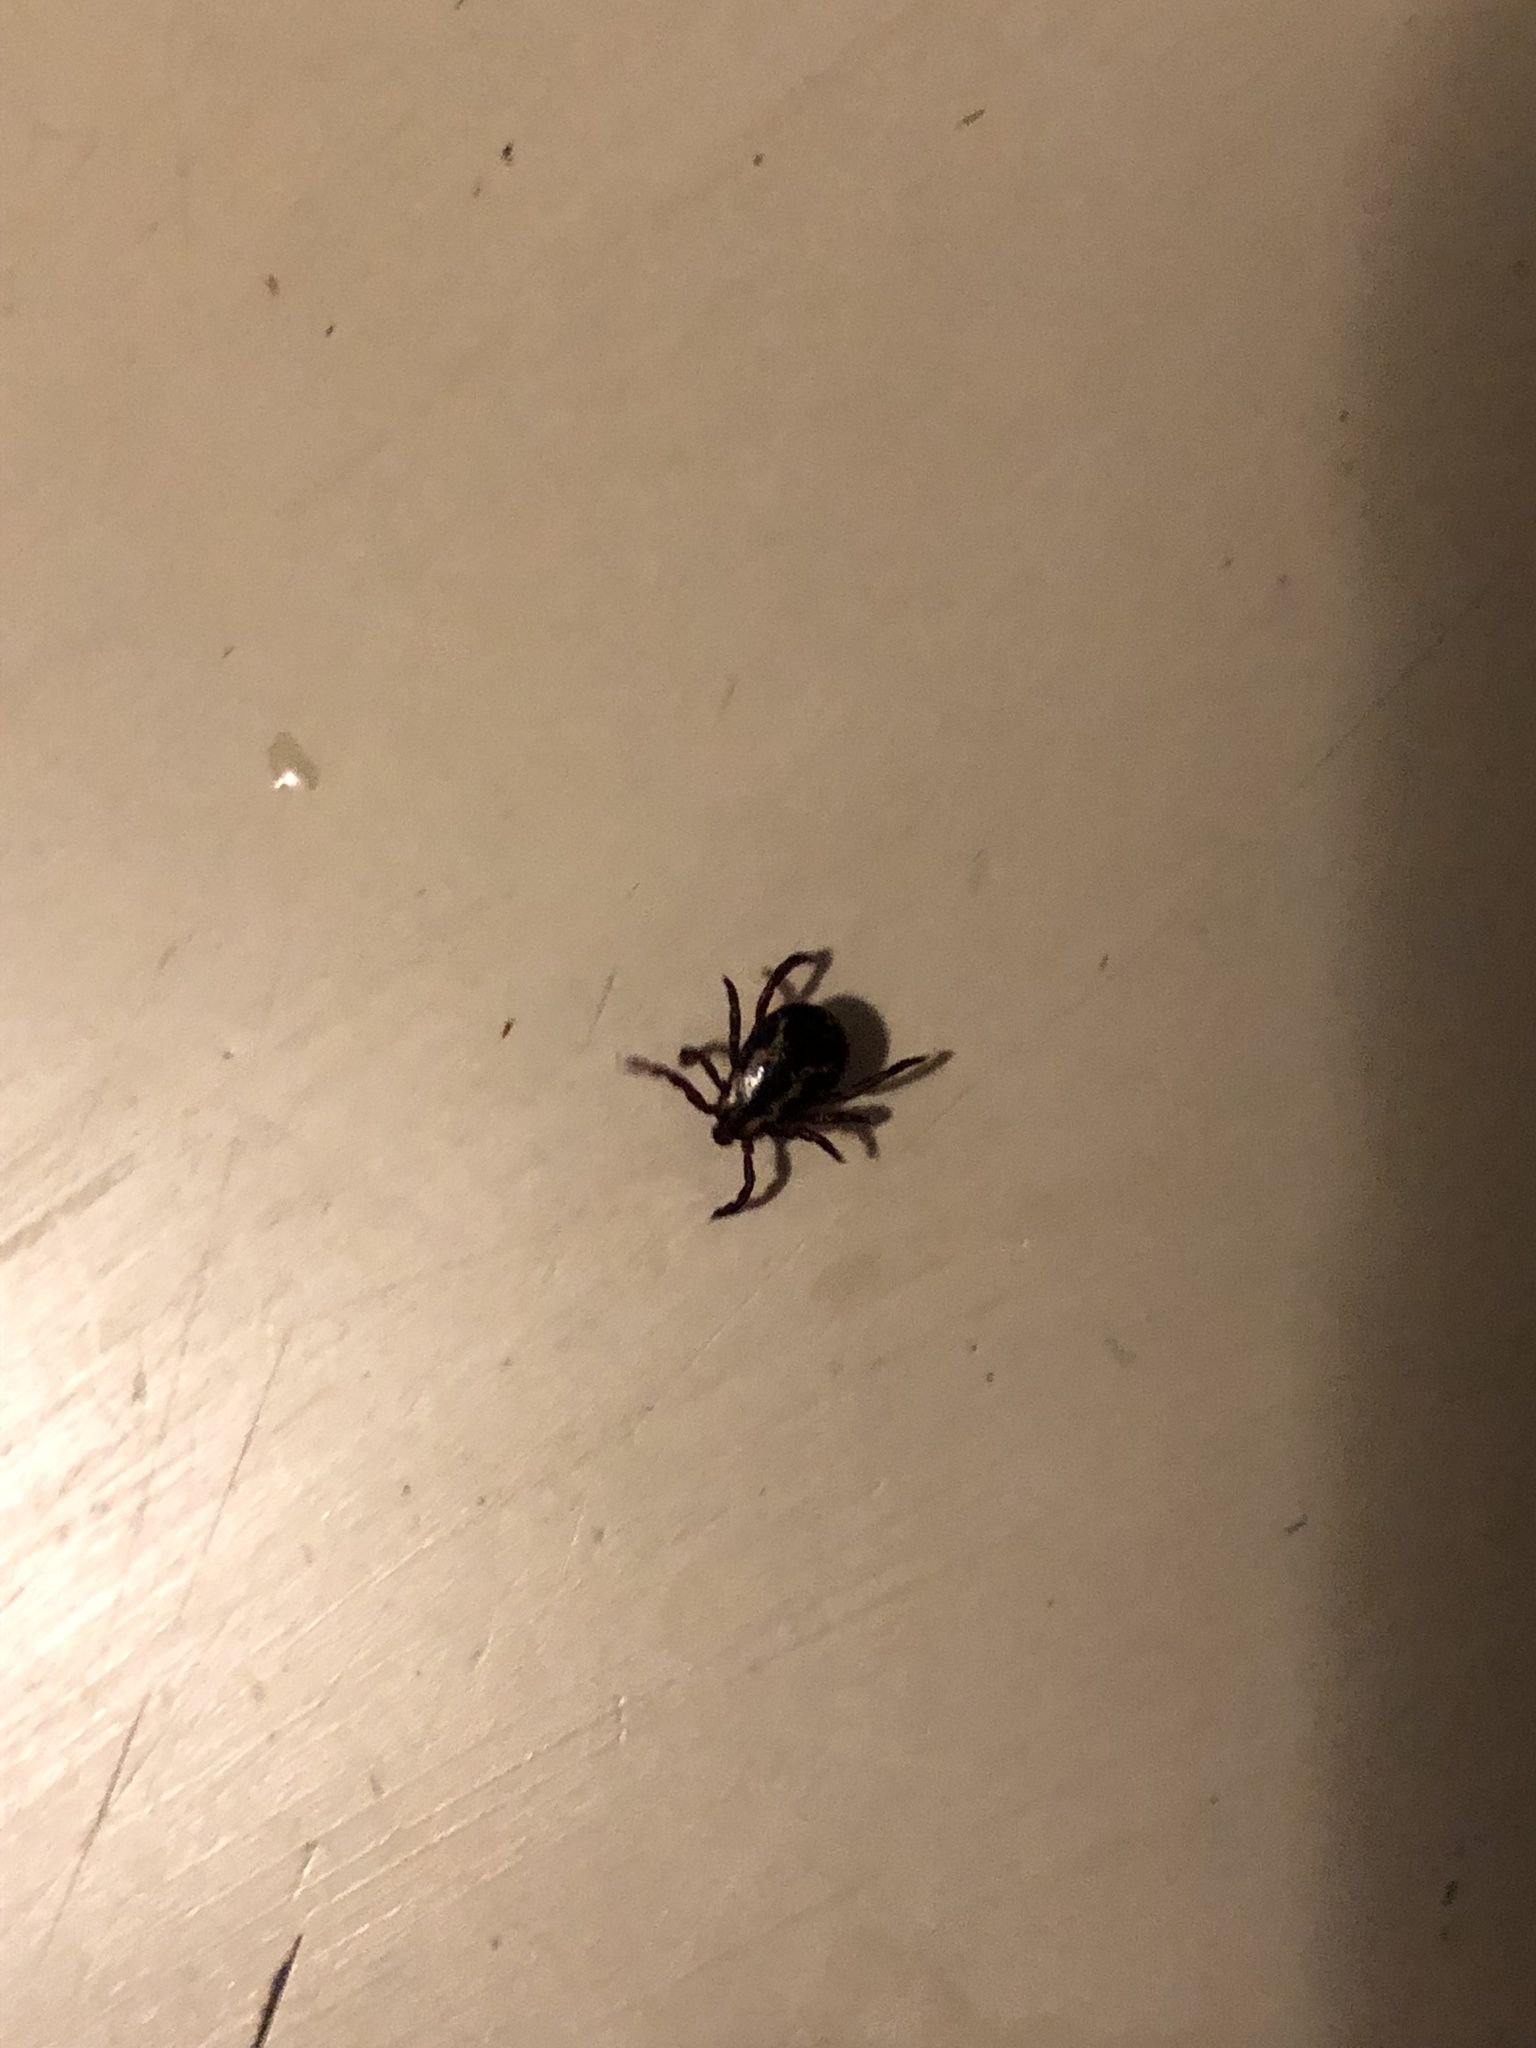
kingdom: Animalia
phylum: Arthropoda
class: Arachnida
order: Ixodida
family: Ixodidae
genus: Dermacentor
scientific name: Dermacentor variabilis
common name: American dog tick
